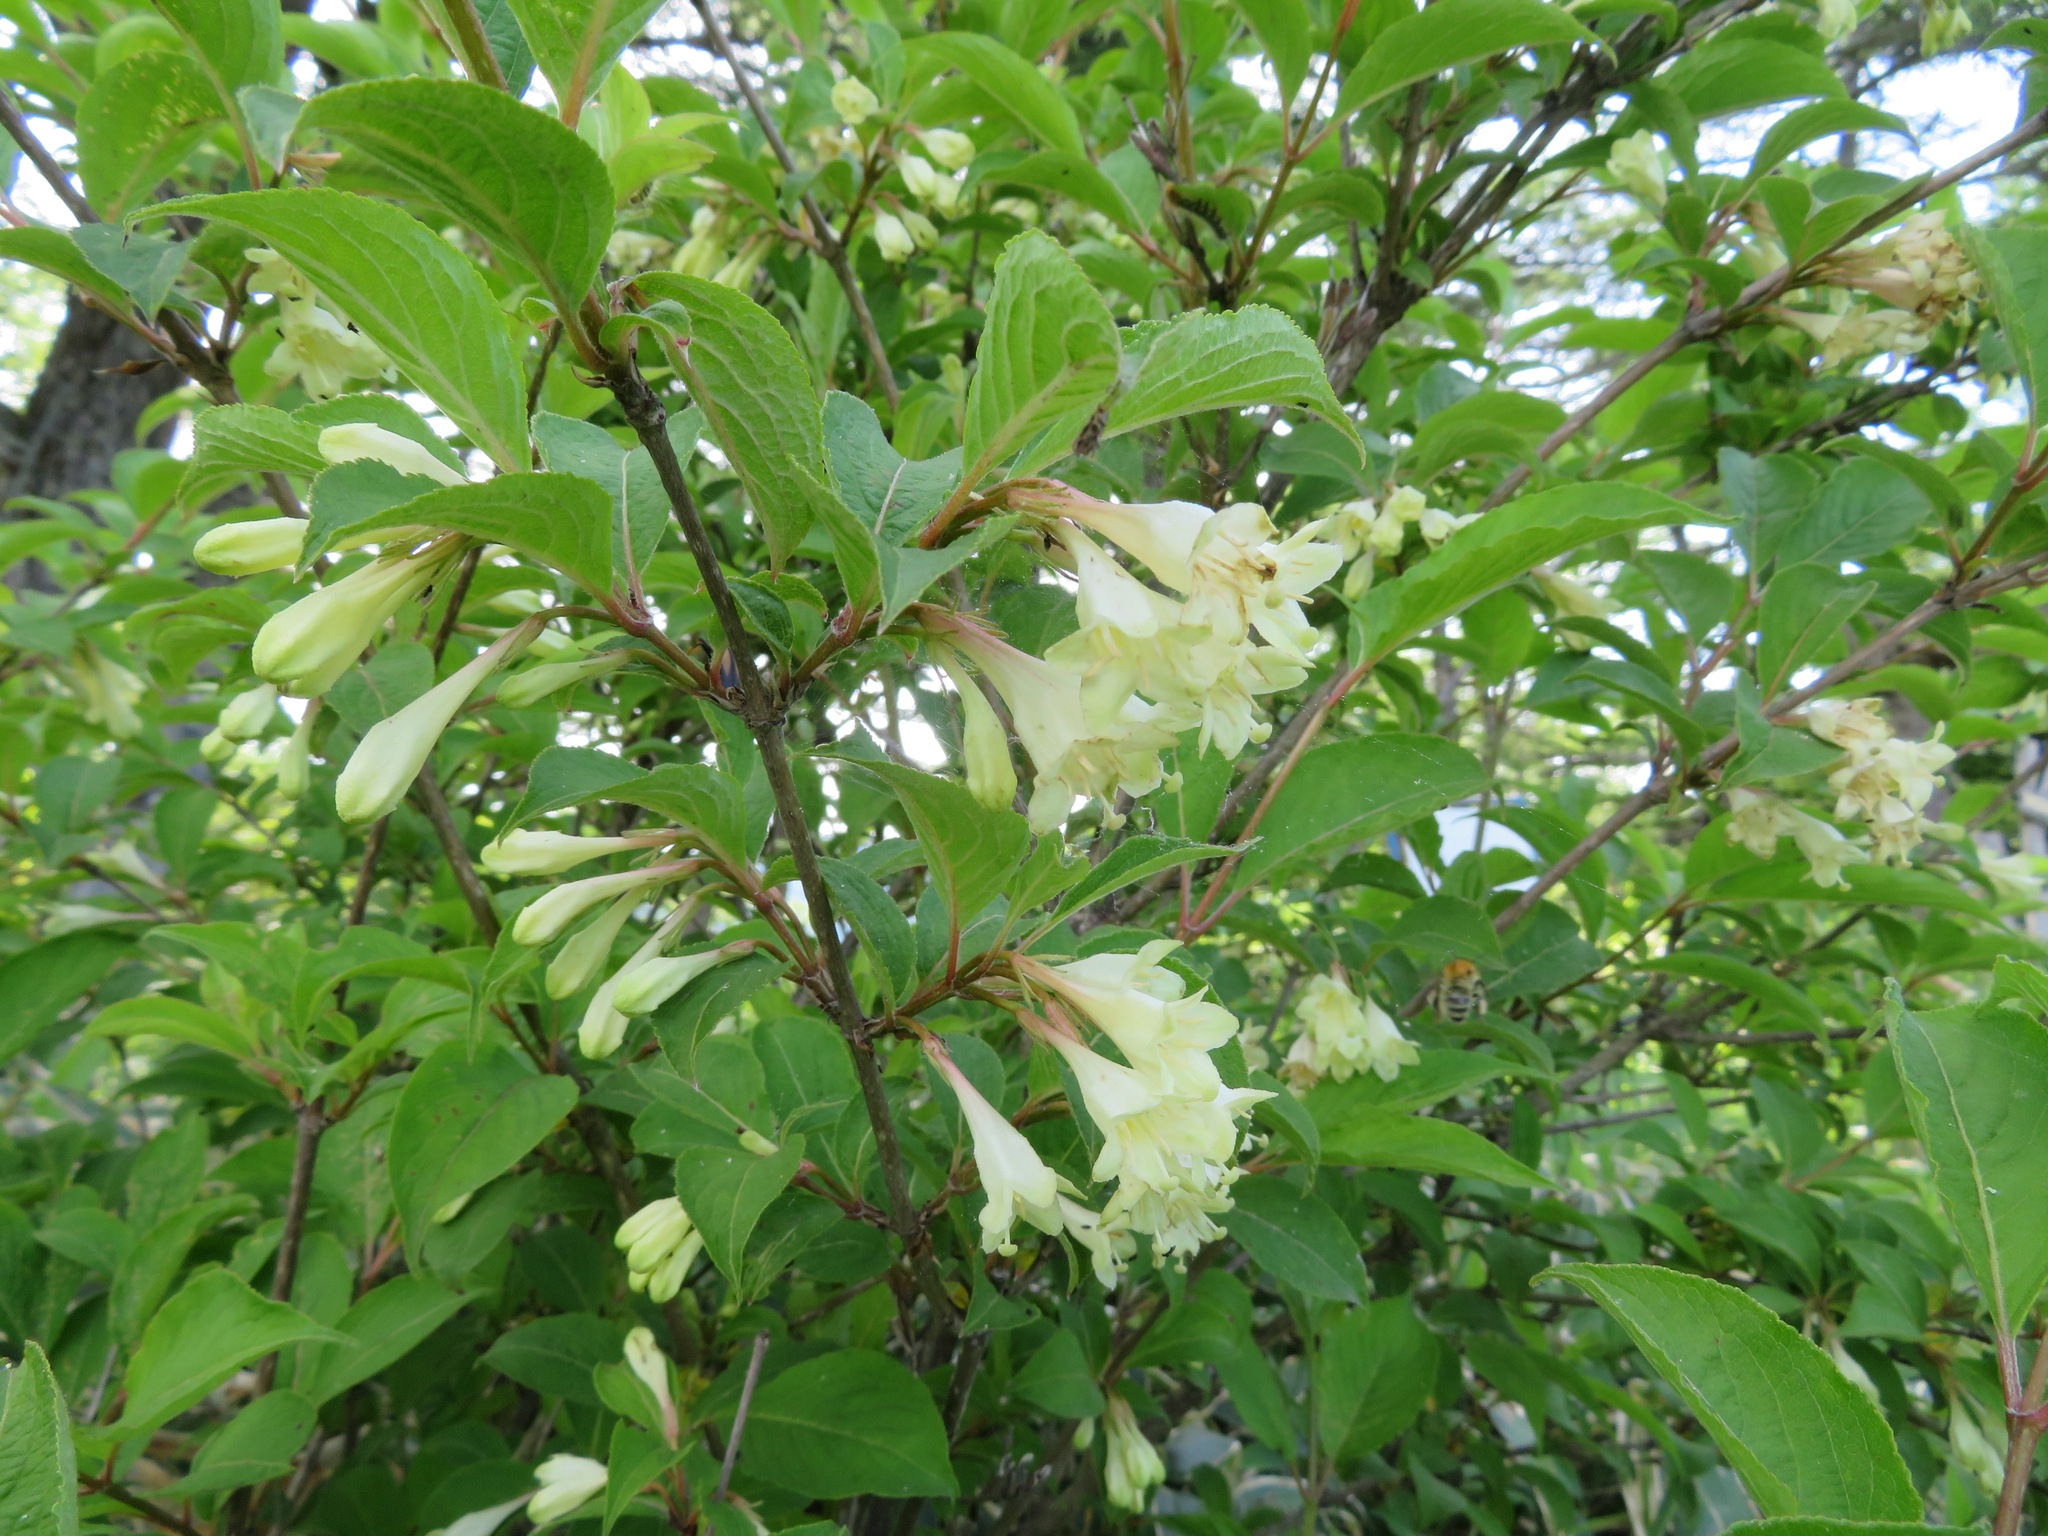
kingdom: Plantae
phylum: Tracheophyta
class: Magnoliopsida
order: Dipsacales
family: Caprifoliaceae
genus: Weigela
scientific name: Weigela decora
